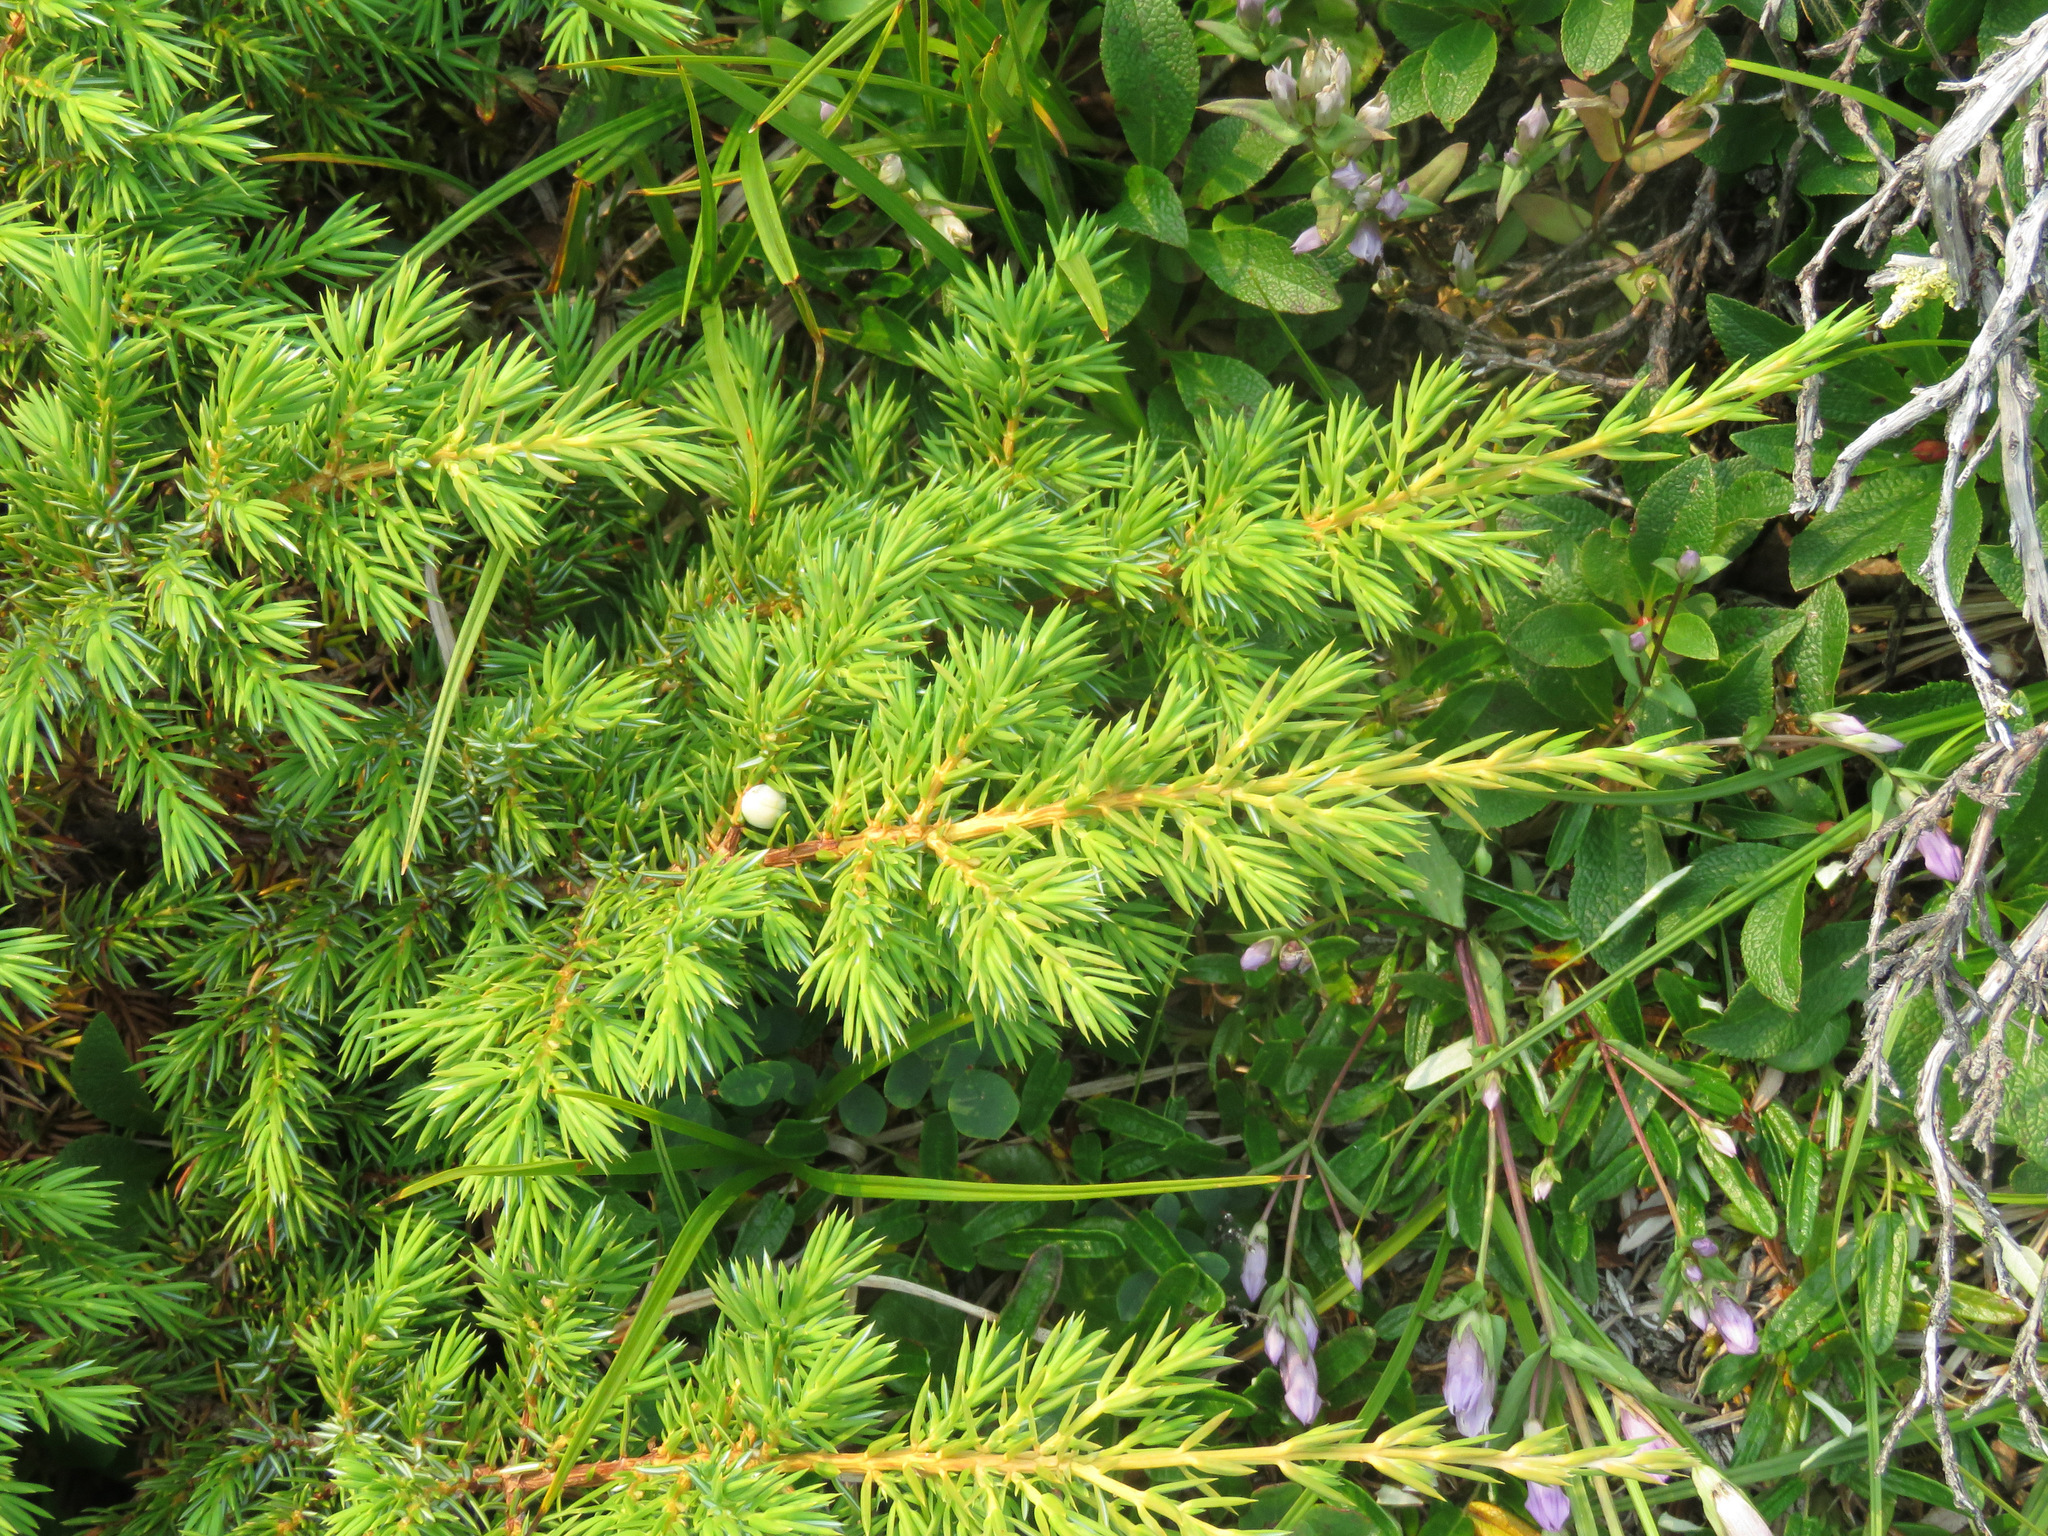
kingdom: Plantae
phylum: Tracheophyta
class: Pinopsida
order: Pinales
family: Cupressaceae
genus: Juniperus
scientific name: Juniperus communis
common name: Common juniper
